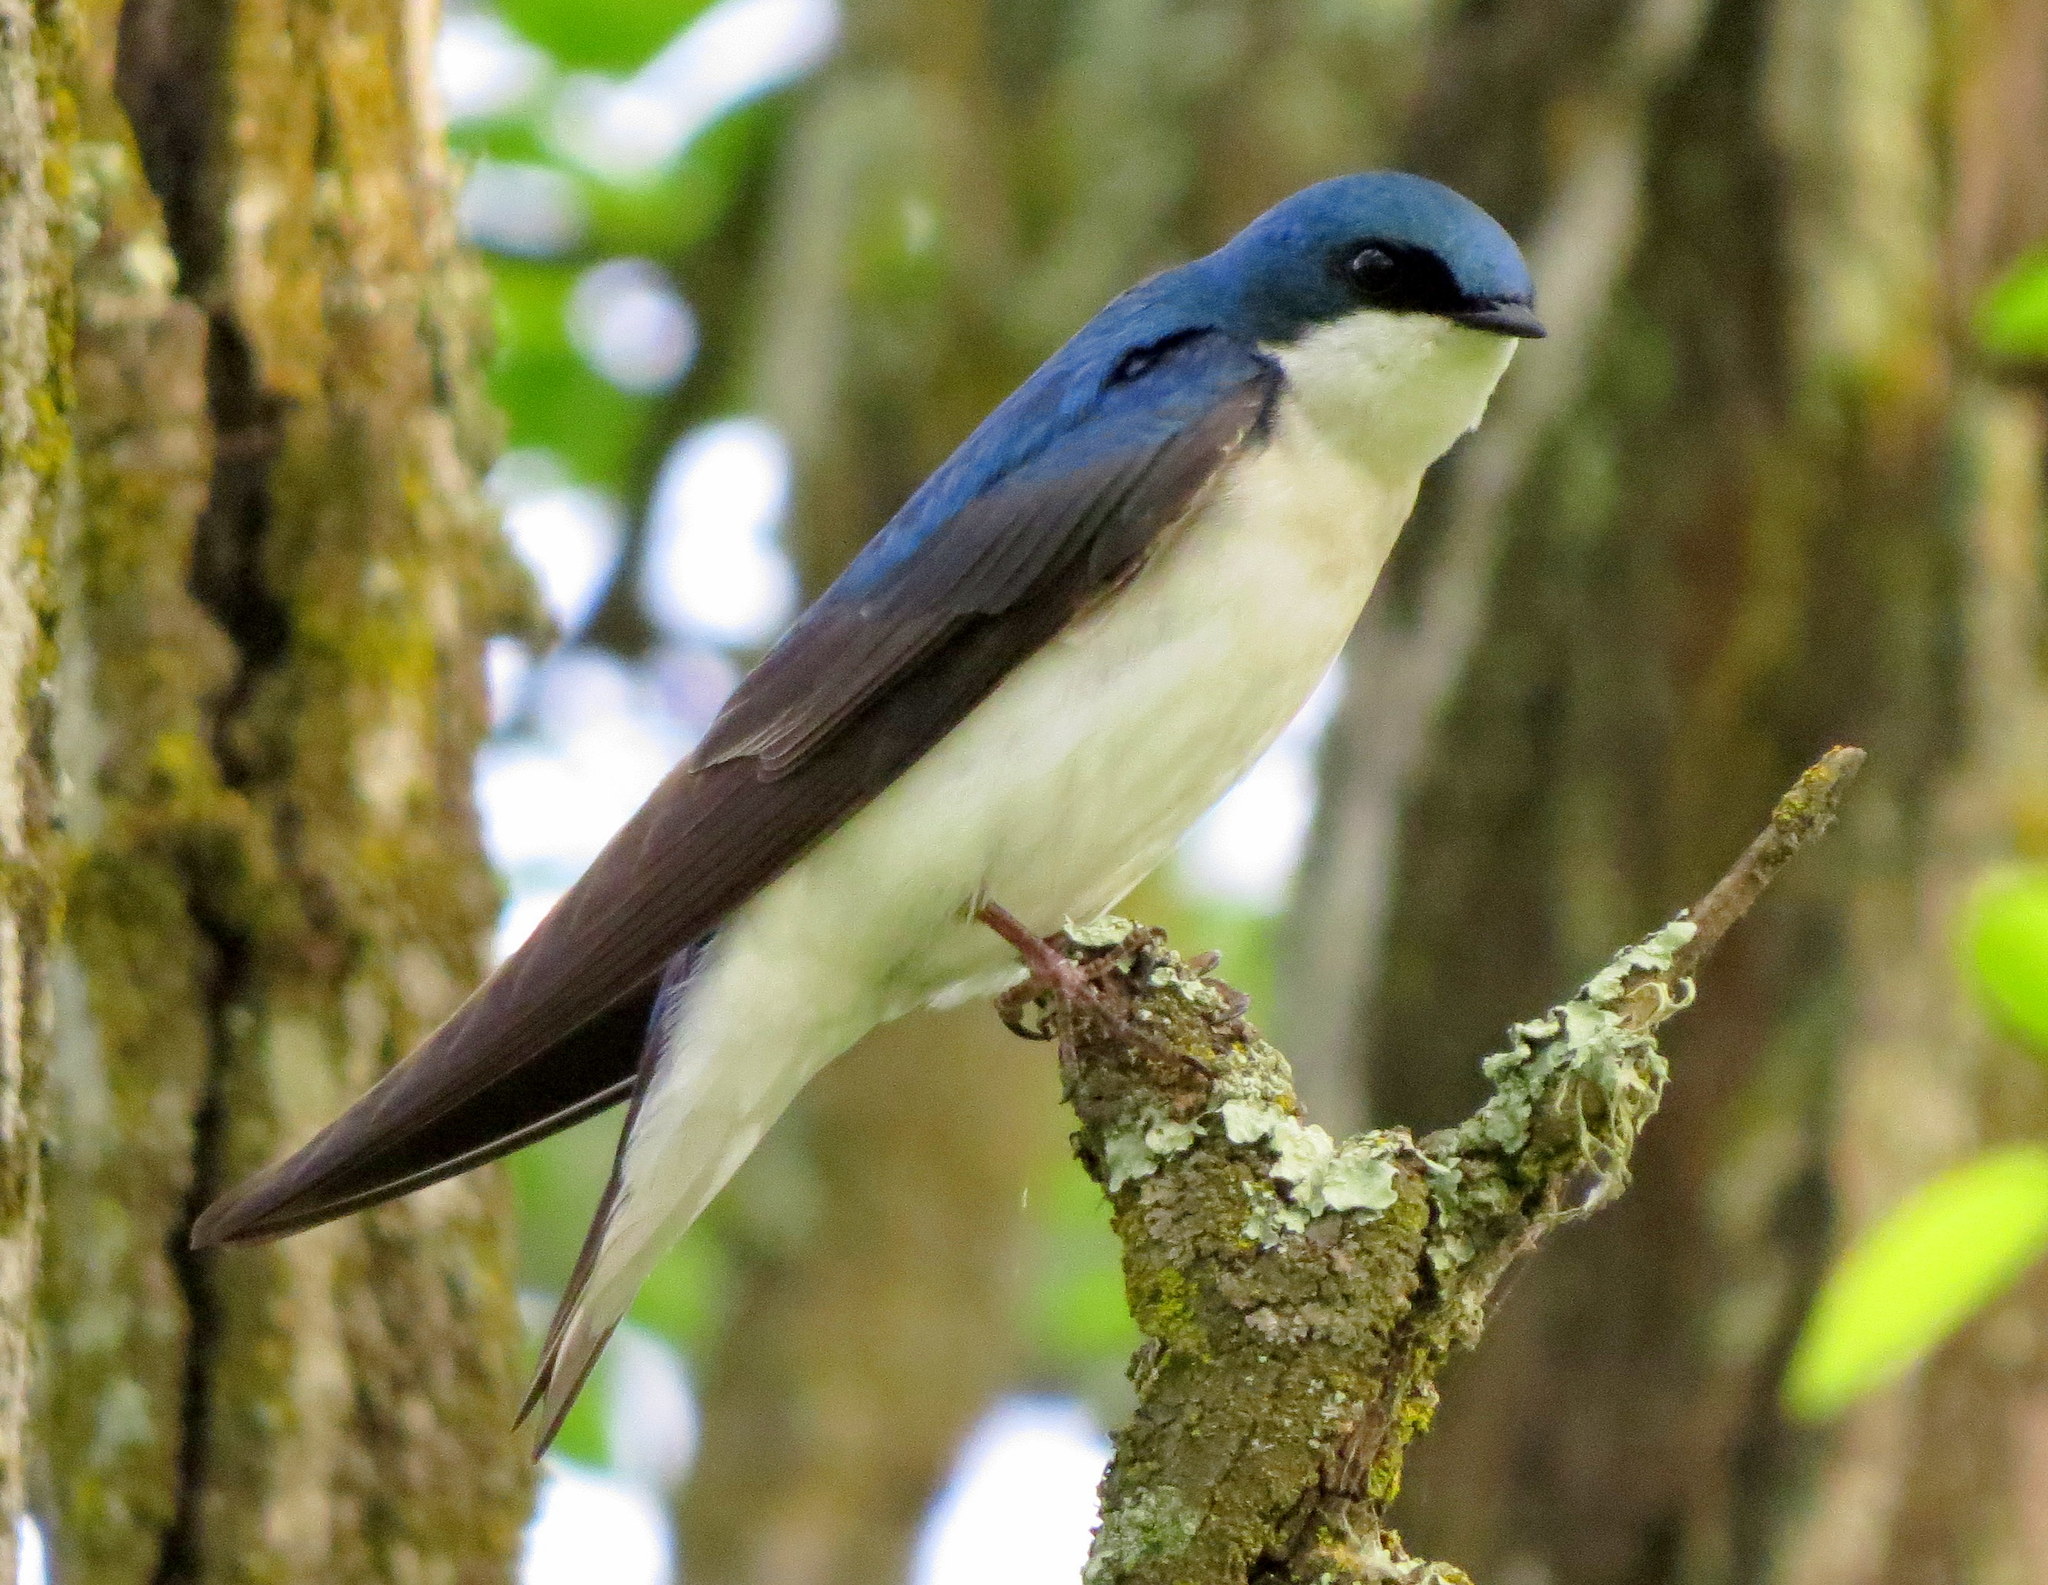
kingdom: Animalia
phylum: Chordata
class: Aves
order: Passeriformes
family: Hirundinidae
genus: Tachycineta
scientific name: Tachycineta bicolor
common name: Tree swallow
